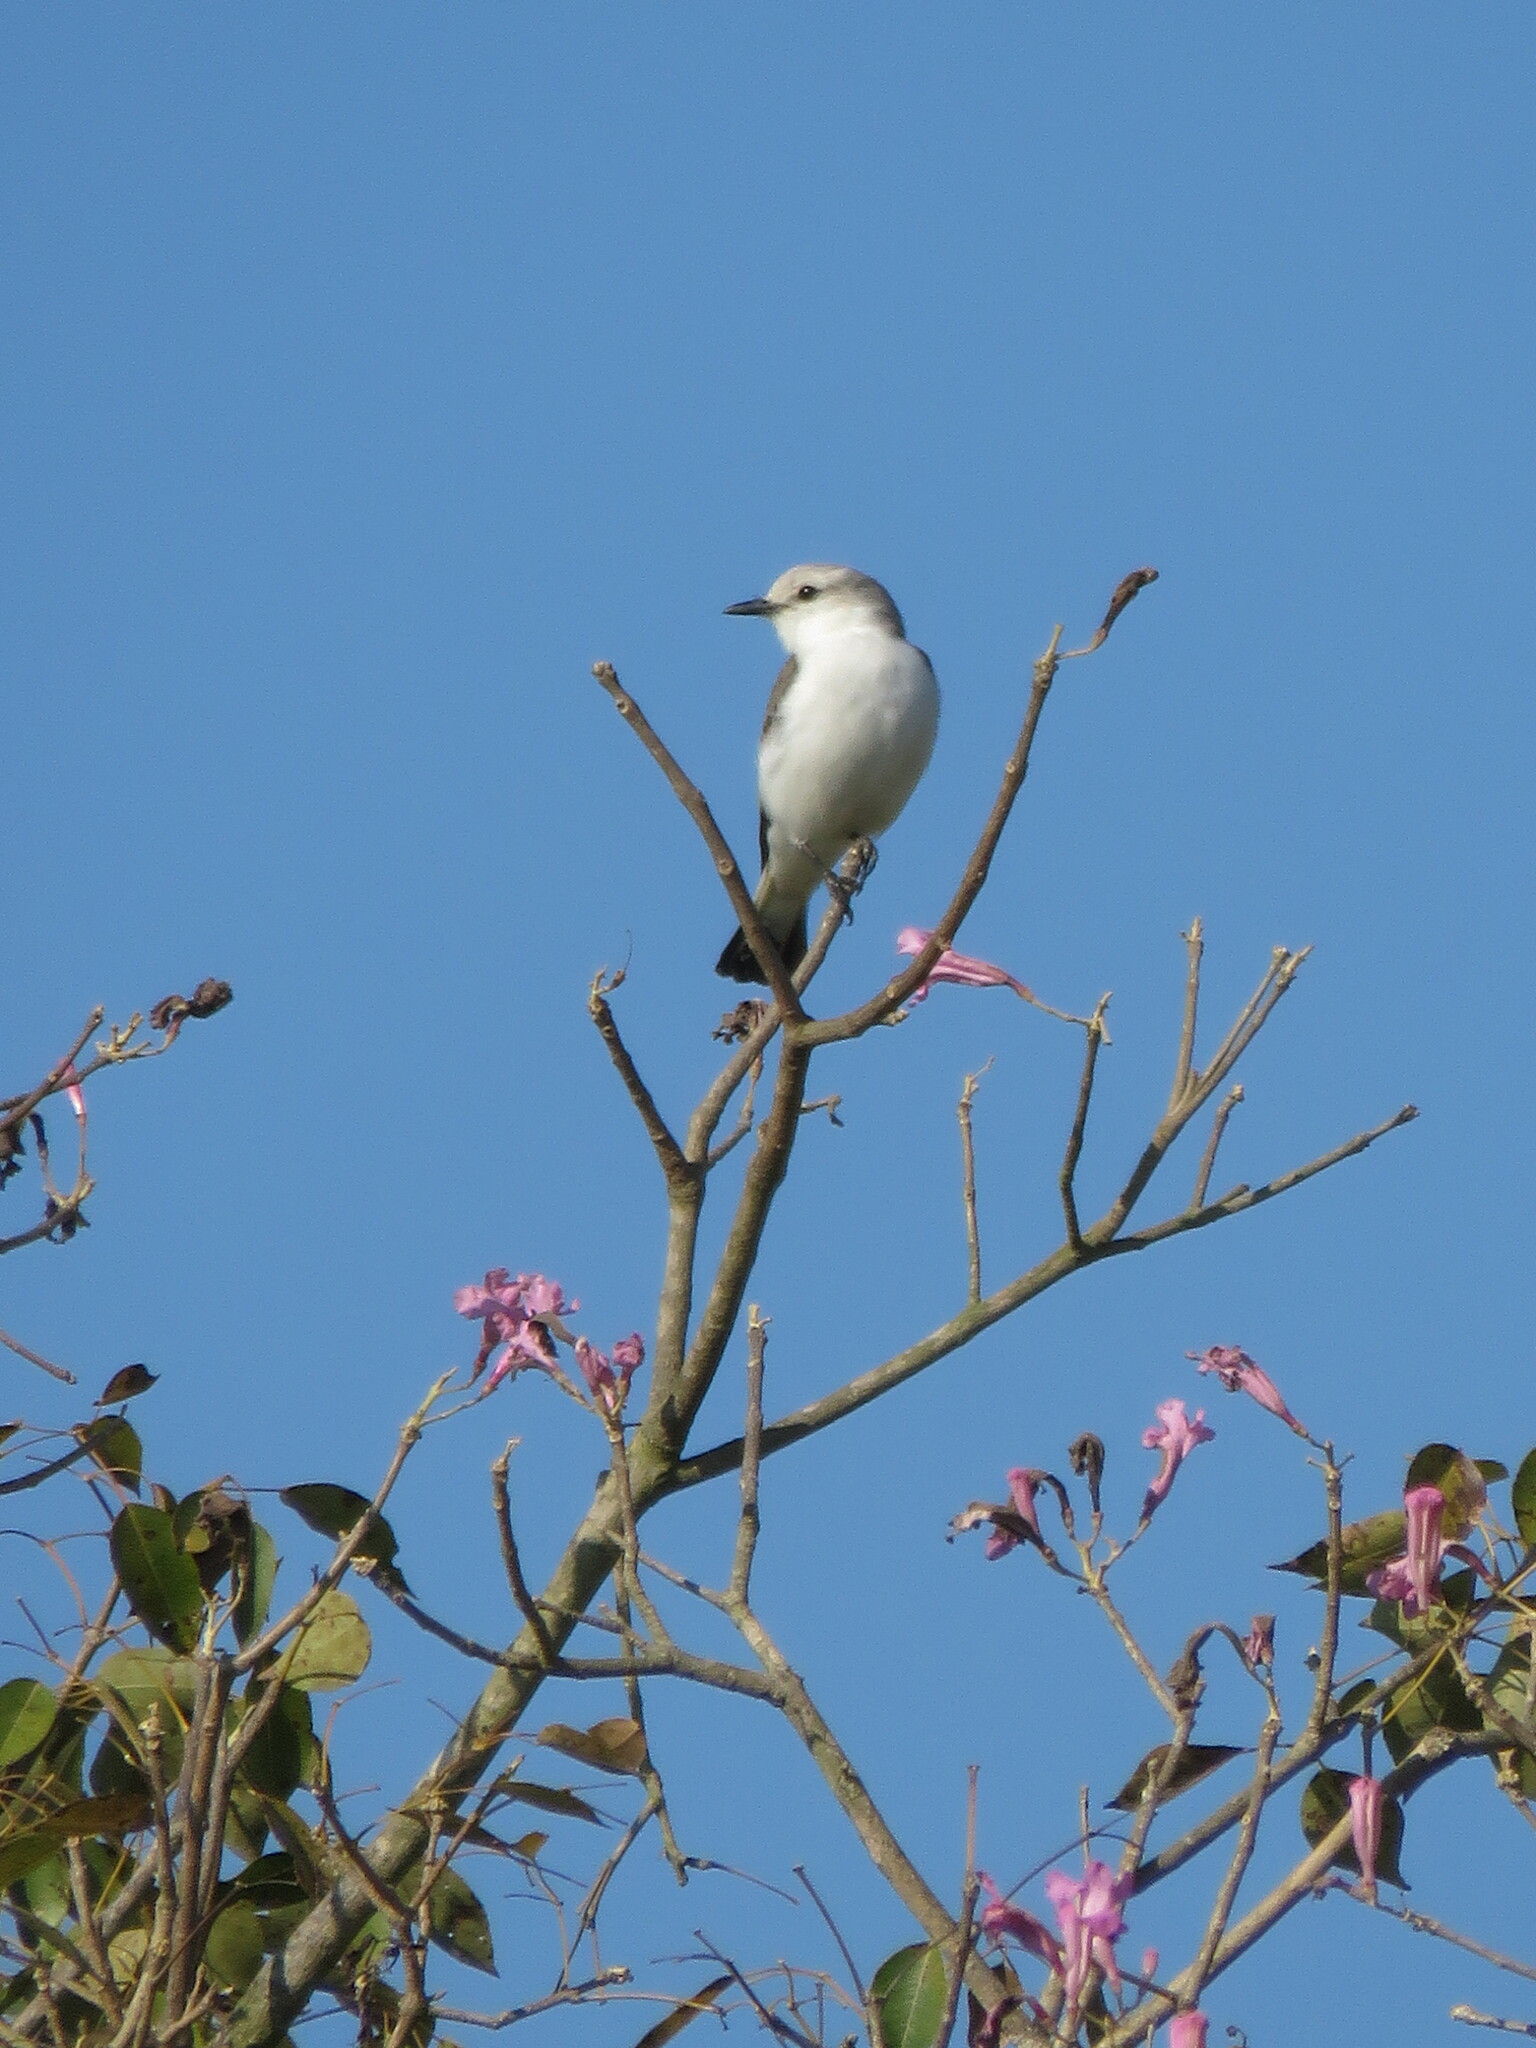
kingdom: Animalia
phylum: Chordata
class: Aves
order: Passeriformes
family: Tyrannidae
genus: Xolmis
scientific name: Xolmis velatus
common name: White-rumped monjita
